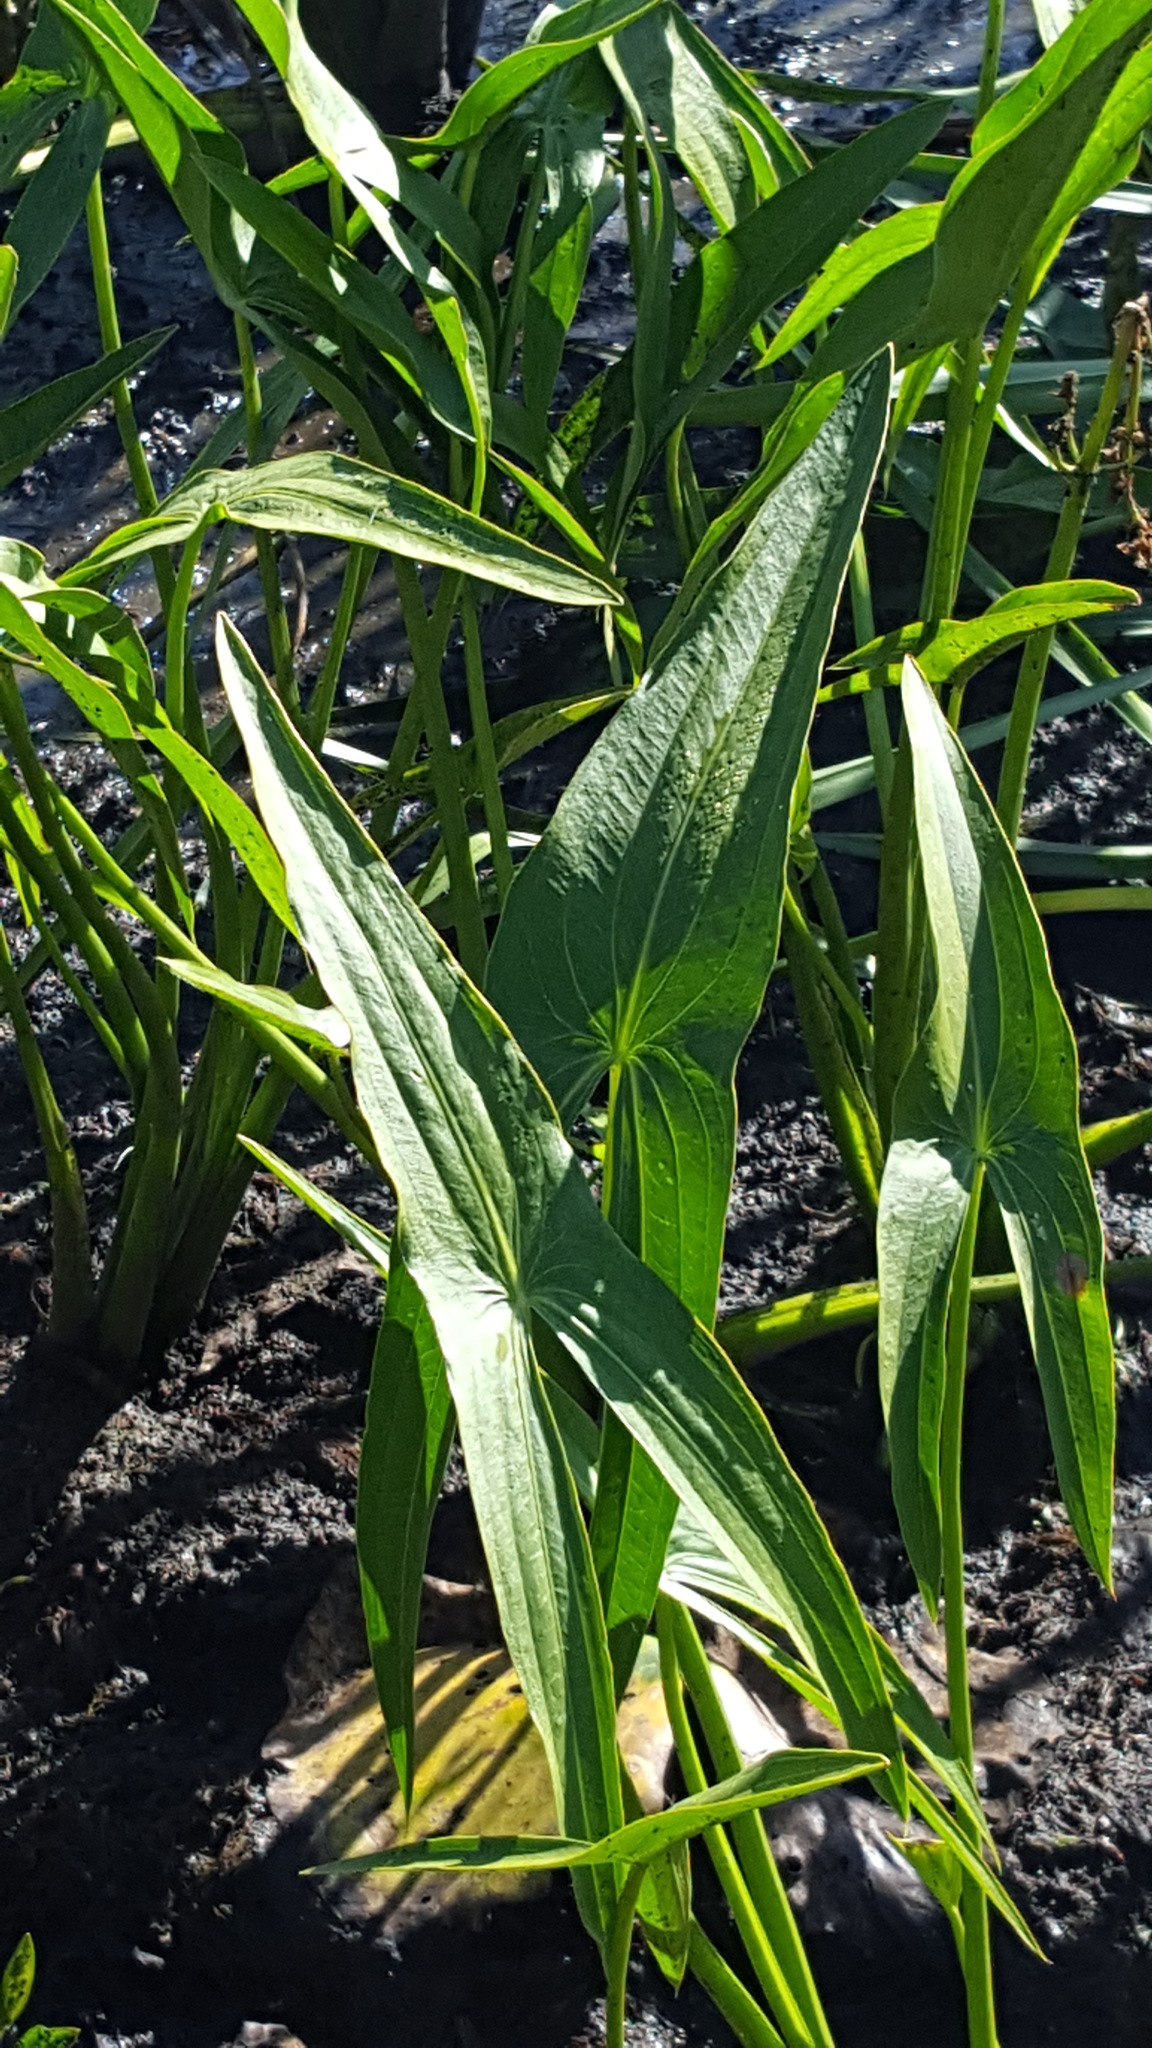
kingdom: Plantae
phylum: Tracheophyta
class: Liliopsida
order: Alismatales
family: Alismataceae
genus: Sagittaria
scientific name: Sagittaria latifolia
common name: Duck-potato
